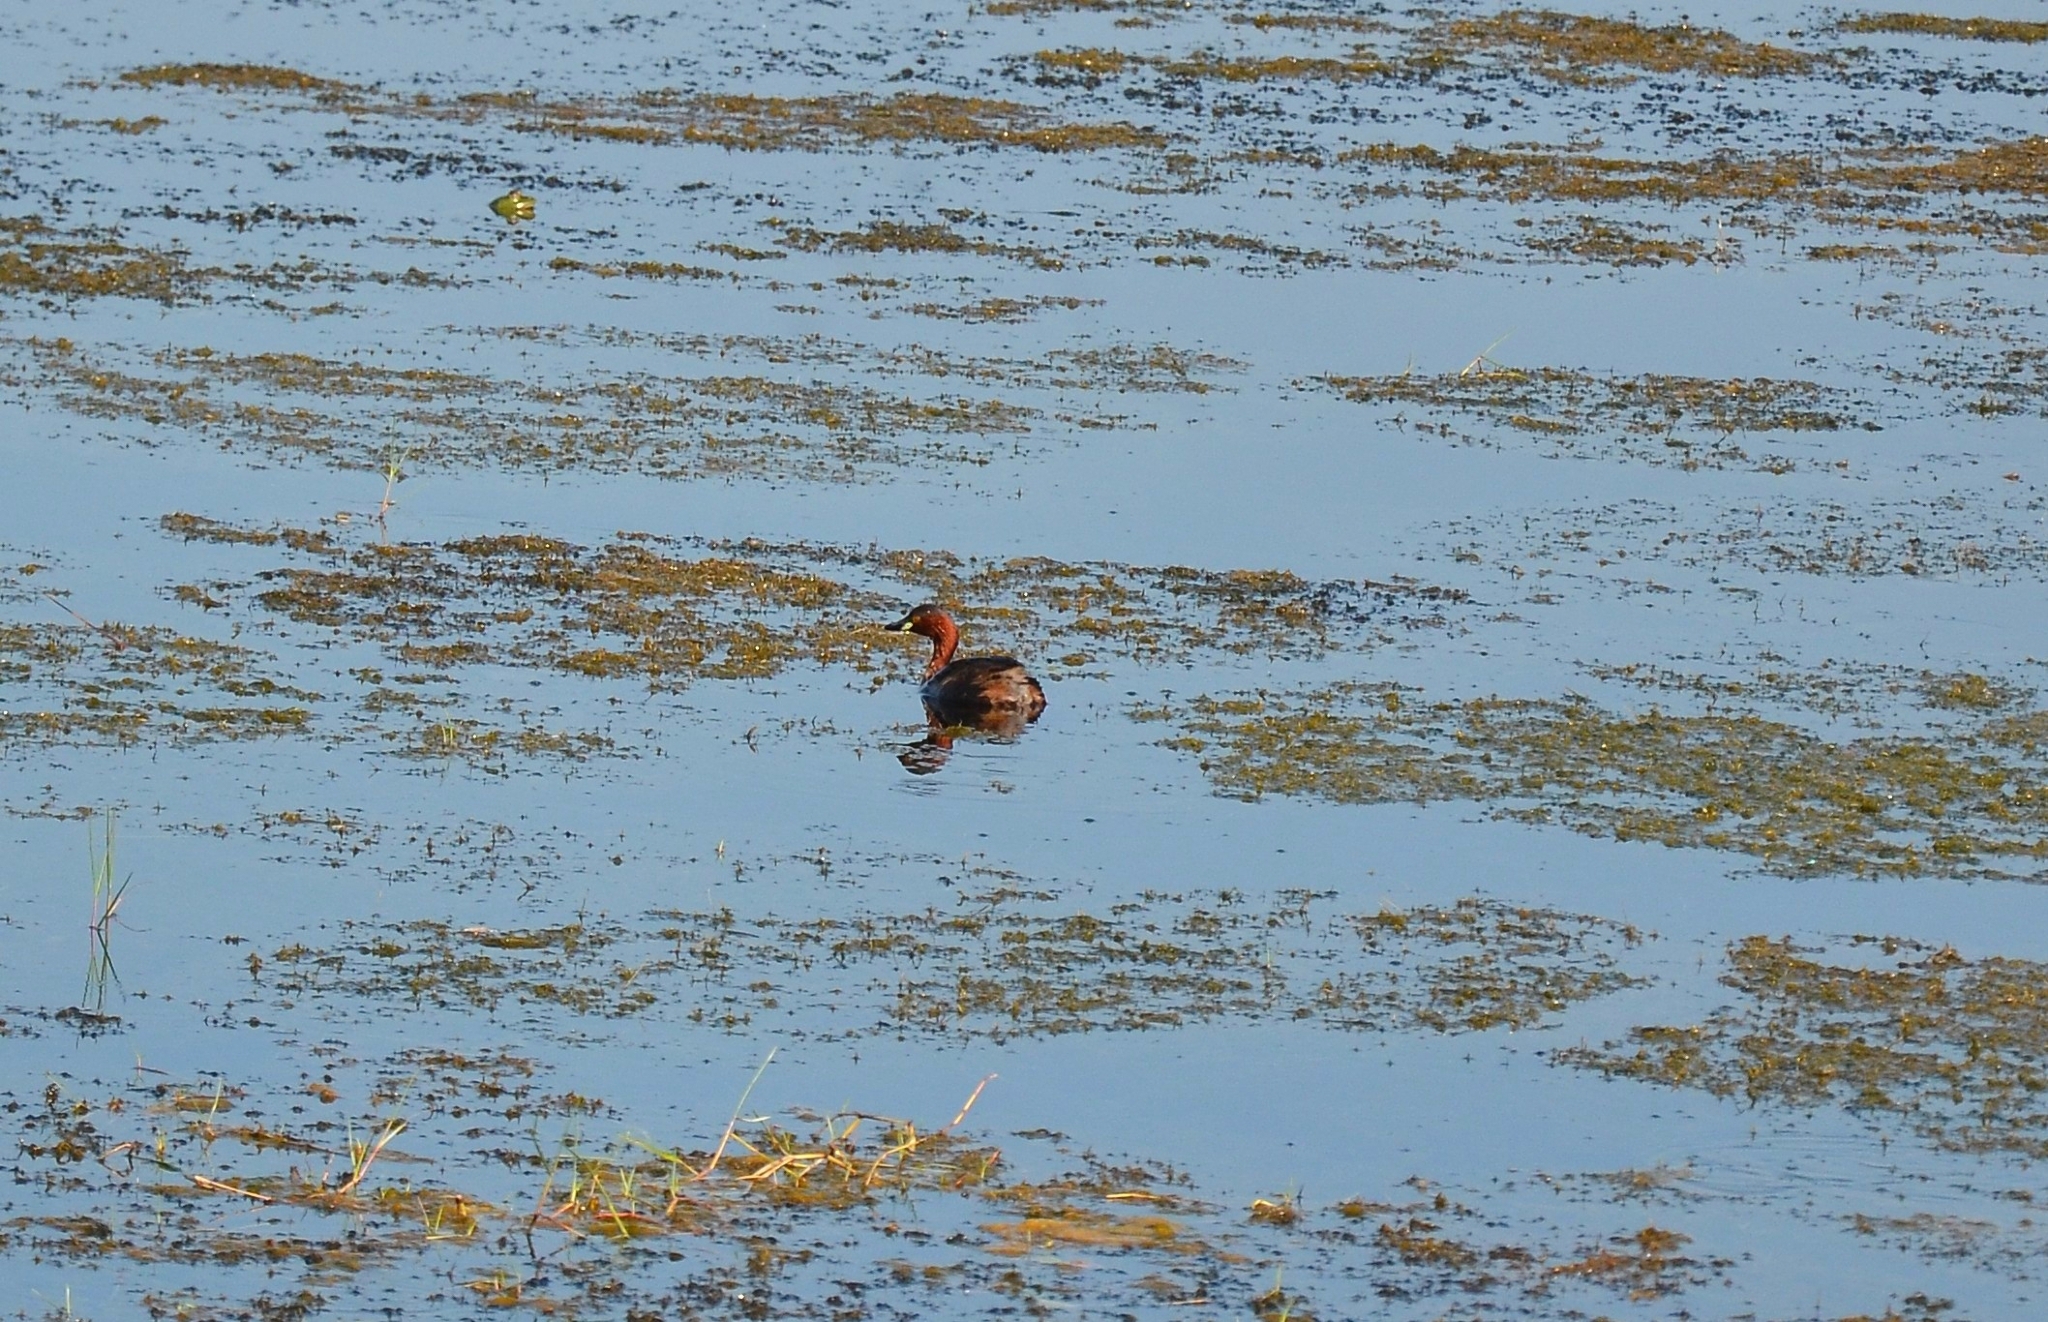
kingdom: Animalia
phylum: Chordata
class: Aves
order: Podicipediformes
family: Podicipedidae
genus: Tachybaptus
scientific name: Tachybaptus ruficollis
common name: Little grebe
